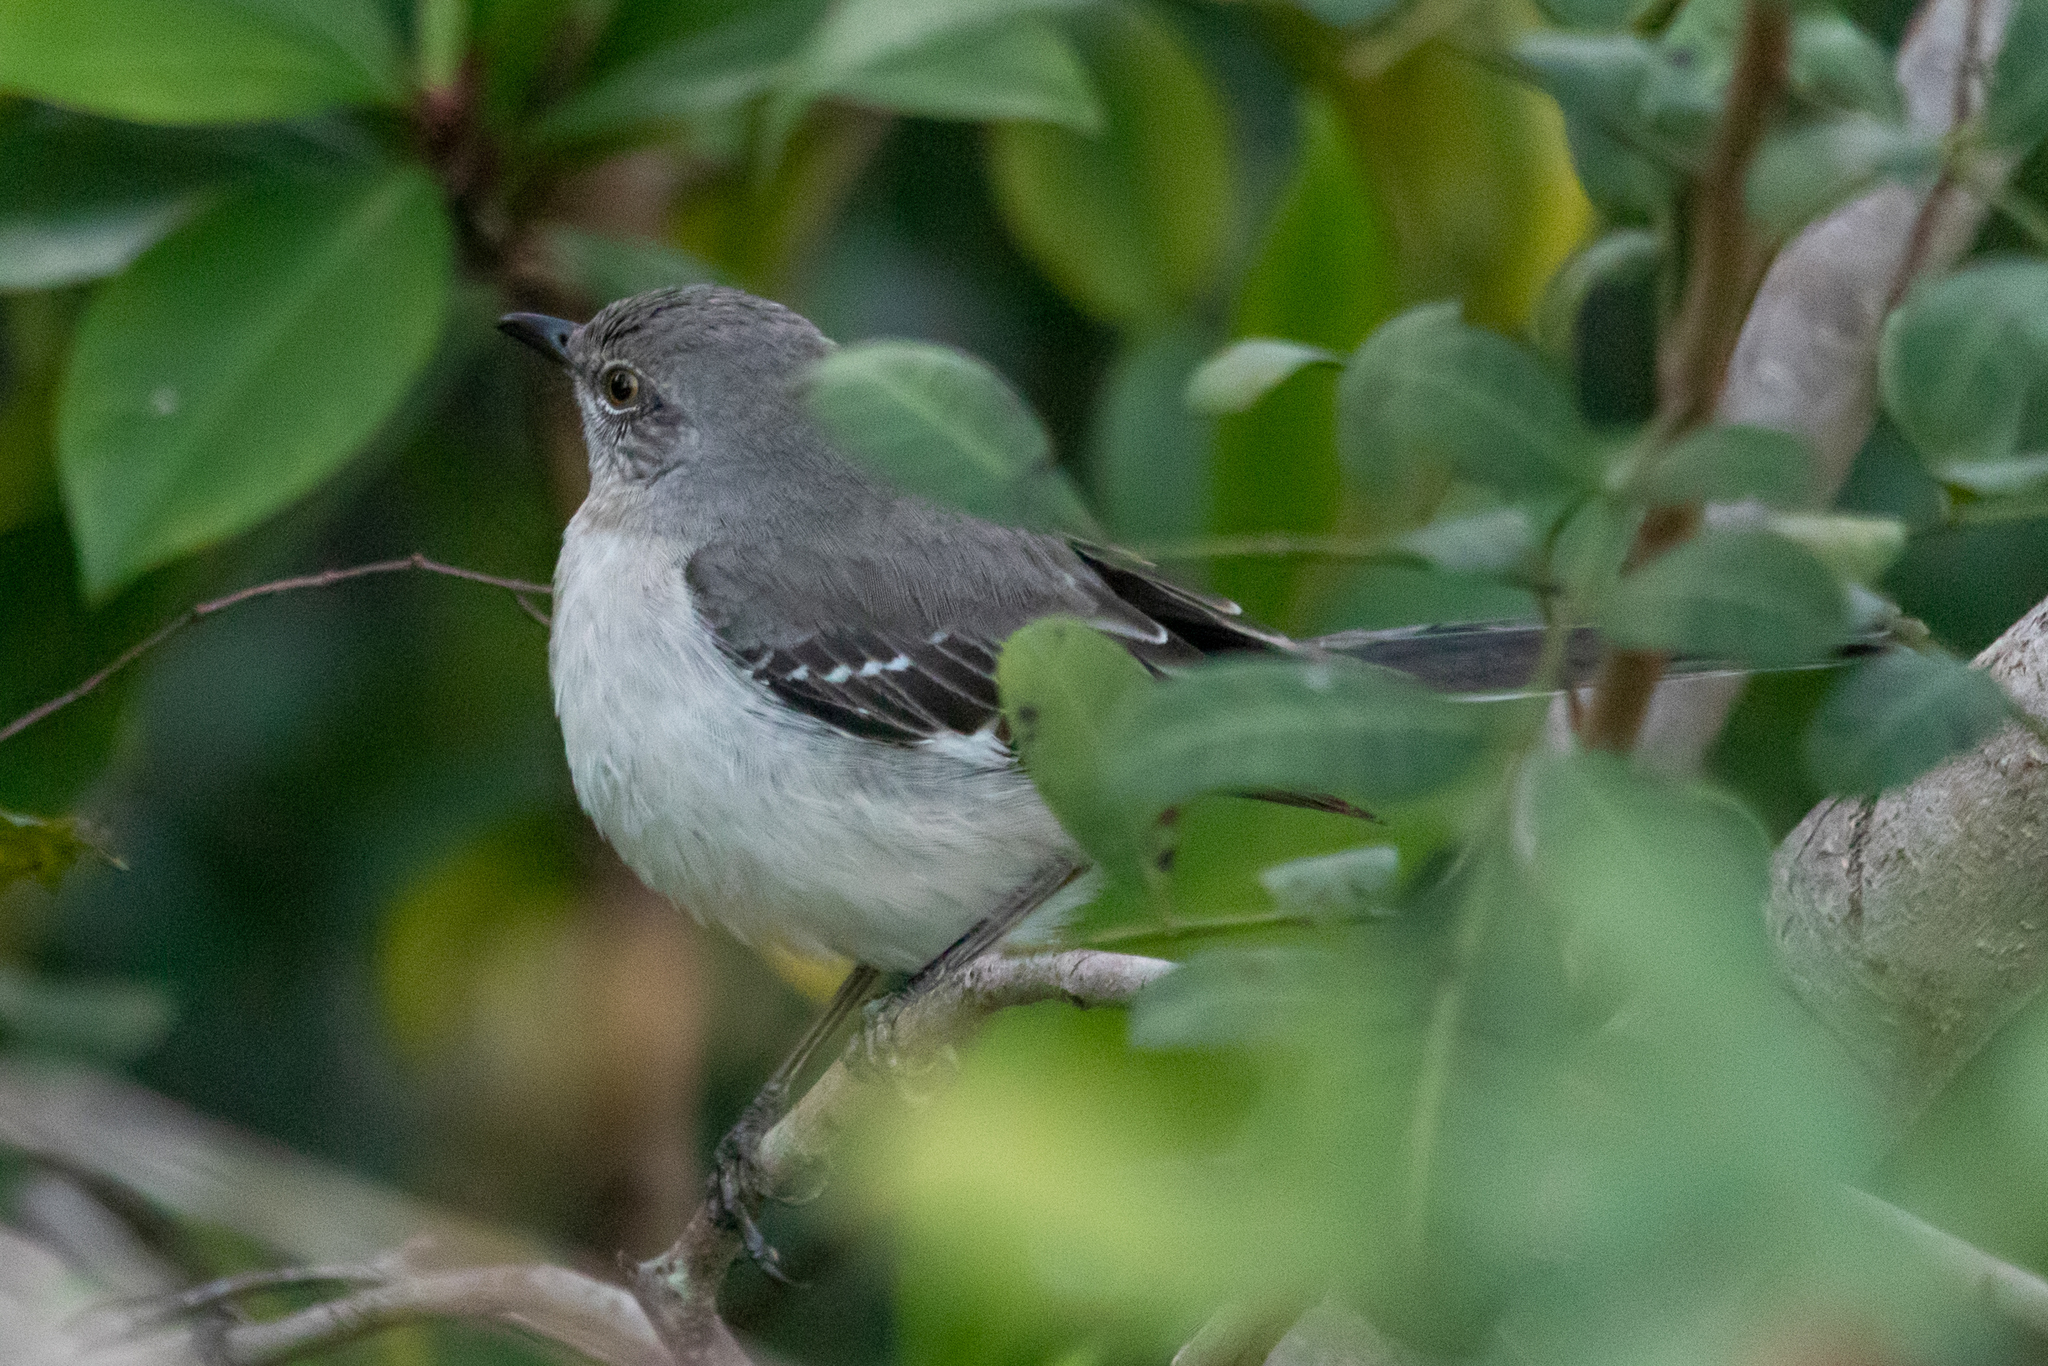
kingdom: Animalia
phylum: Chordata
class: Aves
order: Passeriformes
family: Mimidae
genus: Mimus
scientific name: Mimus polyglottos
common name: Northern mockingbird
